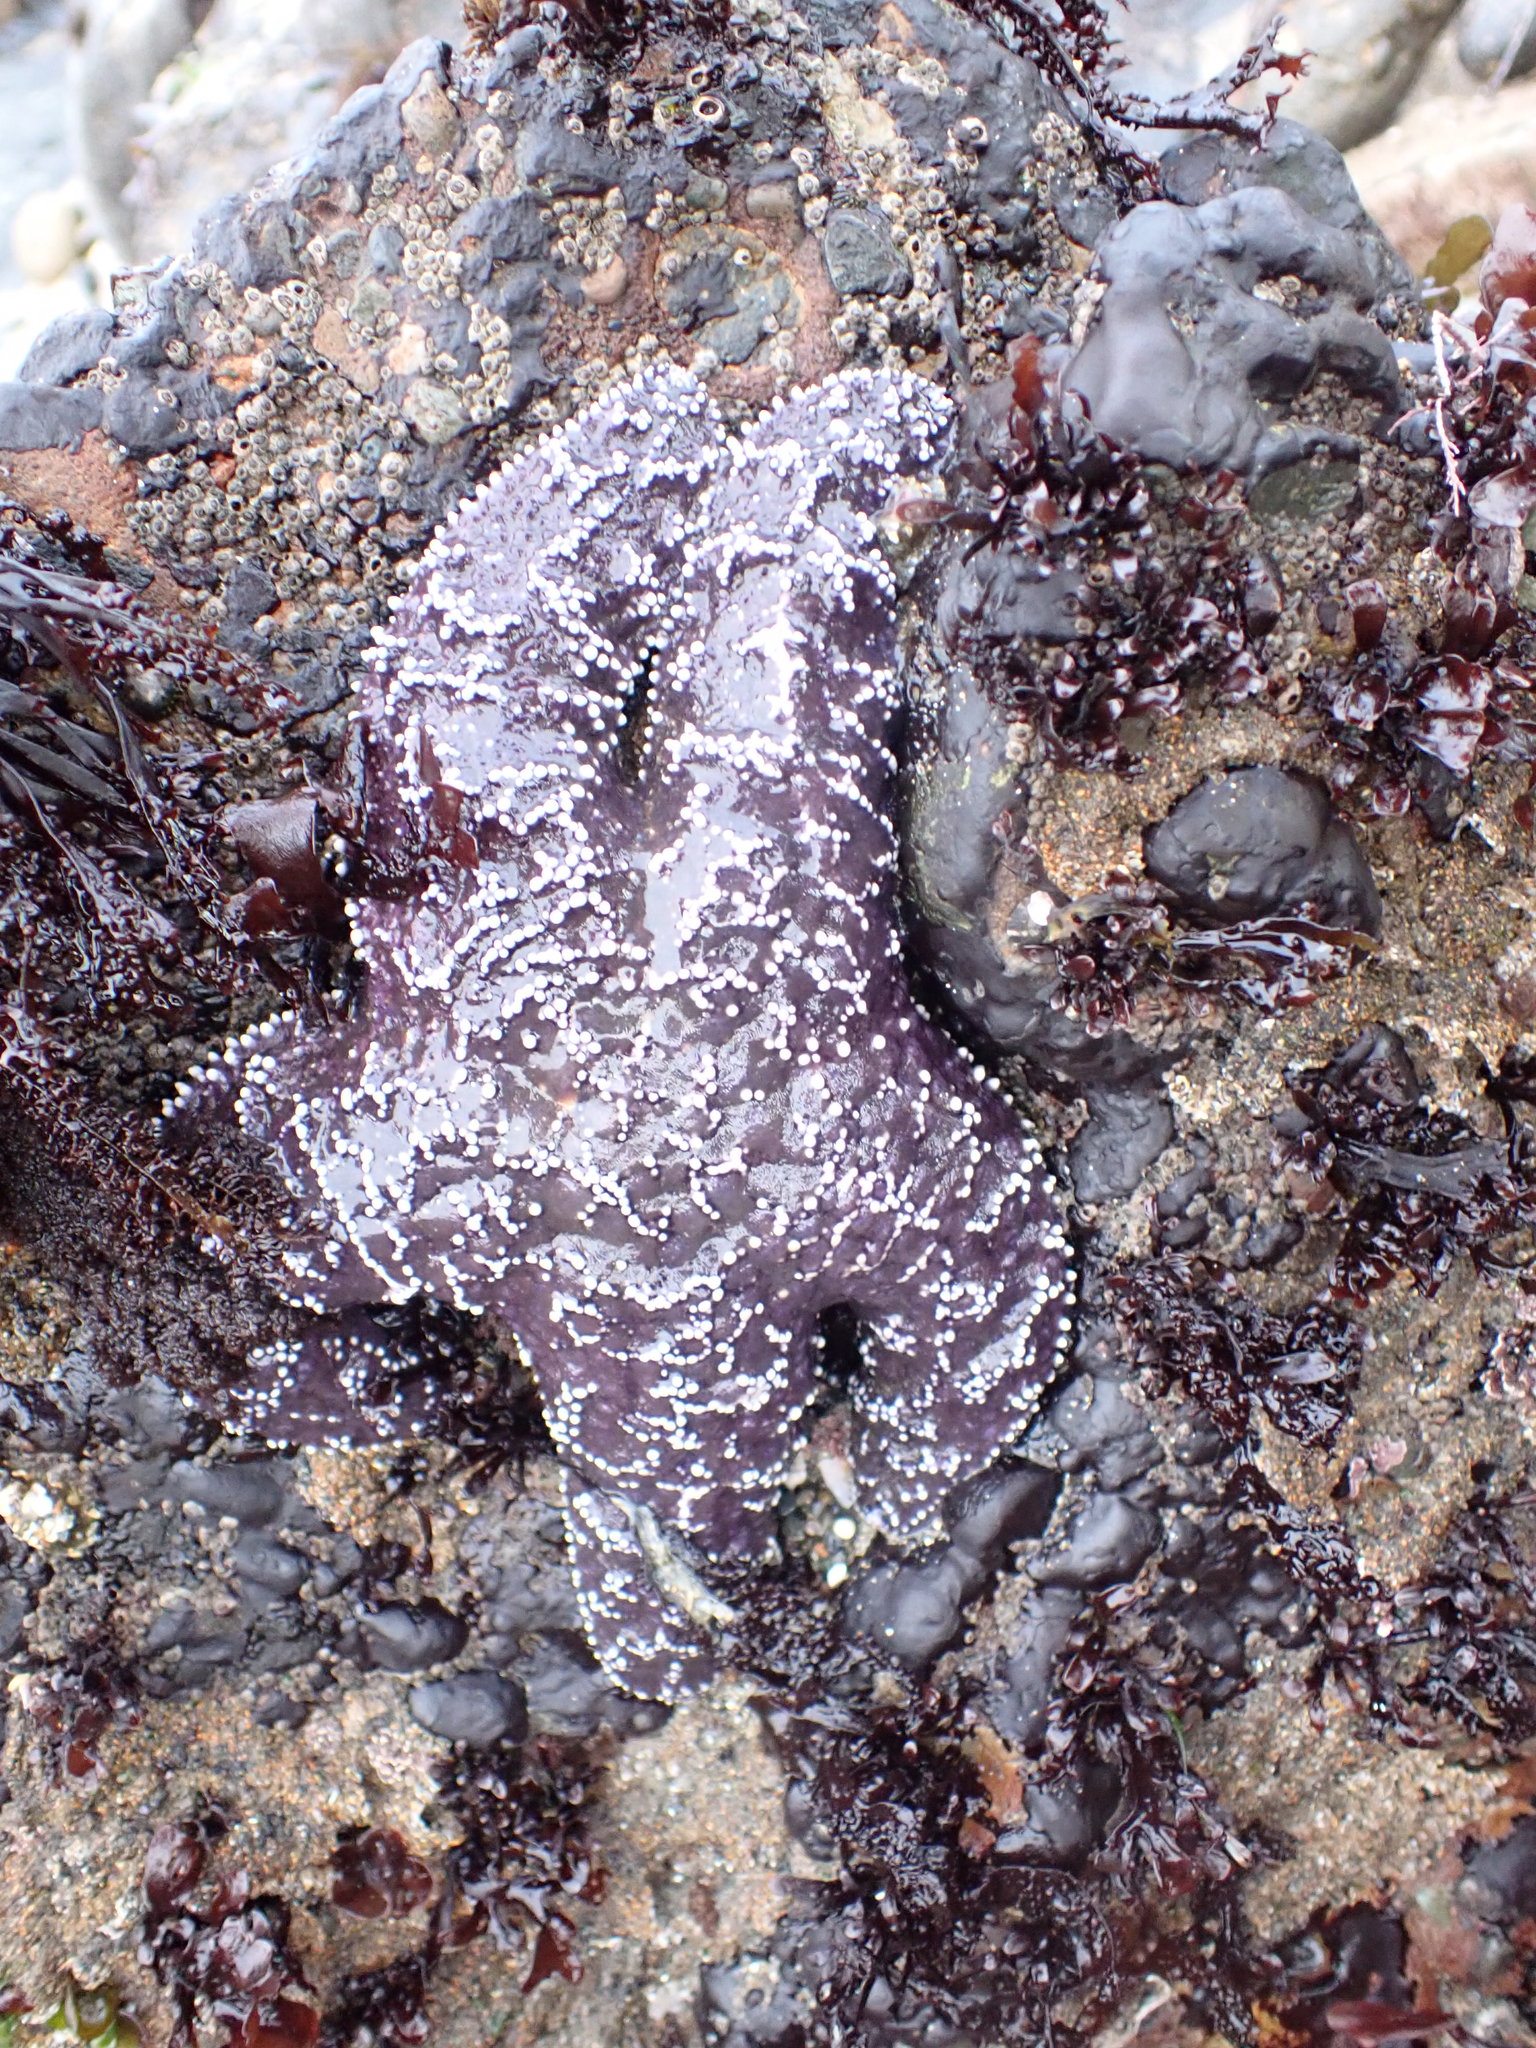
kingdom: Animalia
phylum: Echinodermata
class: Asteroidea
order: Forcipulatida
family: Asteriidae
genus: Pisaster
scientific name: Pisaster ochraceus
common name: Ochre stars
